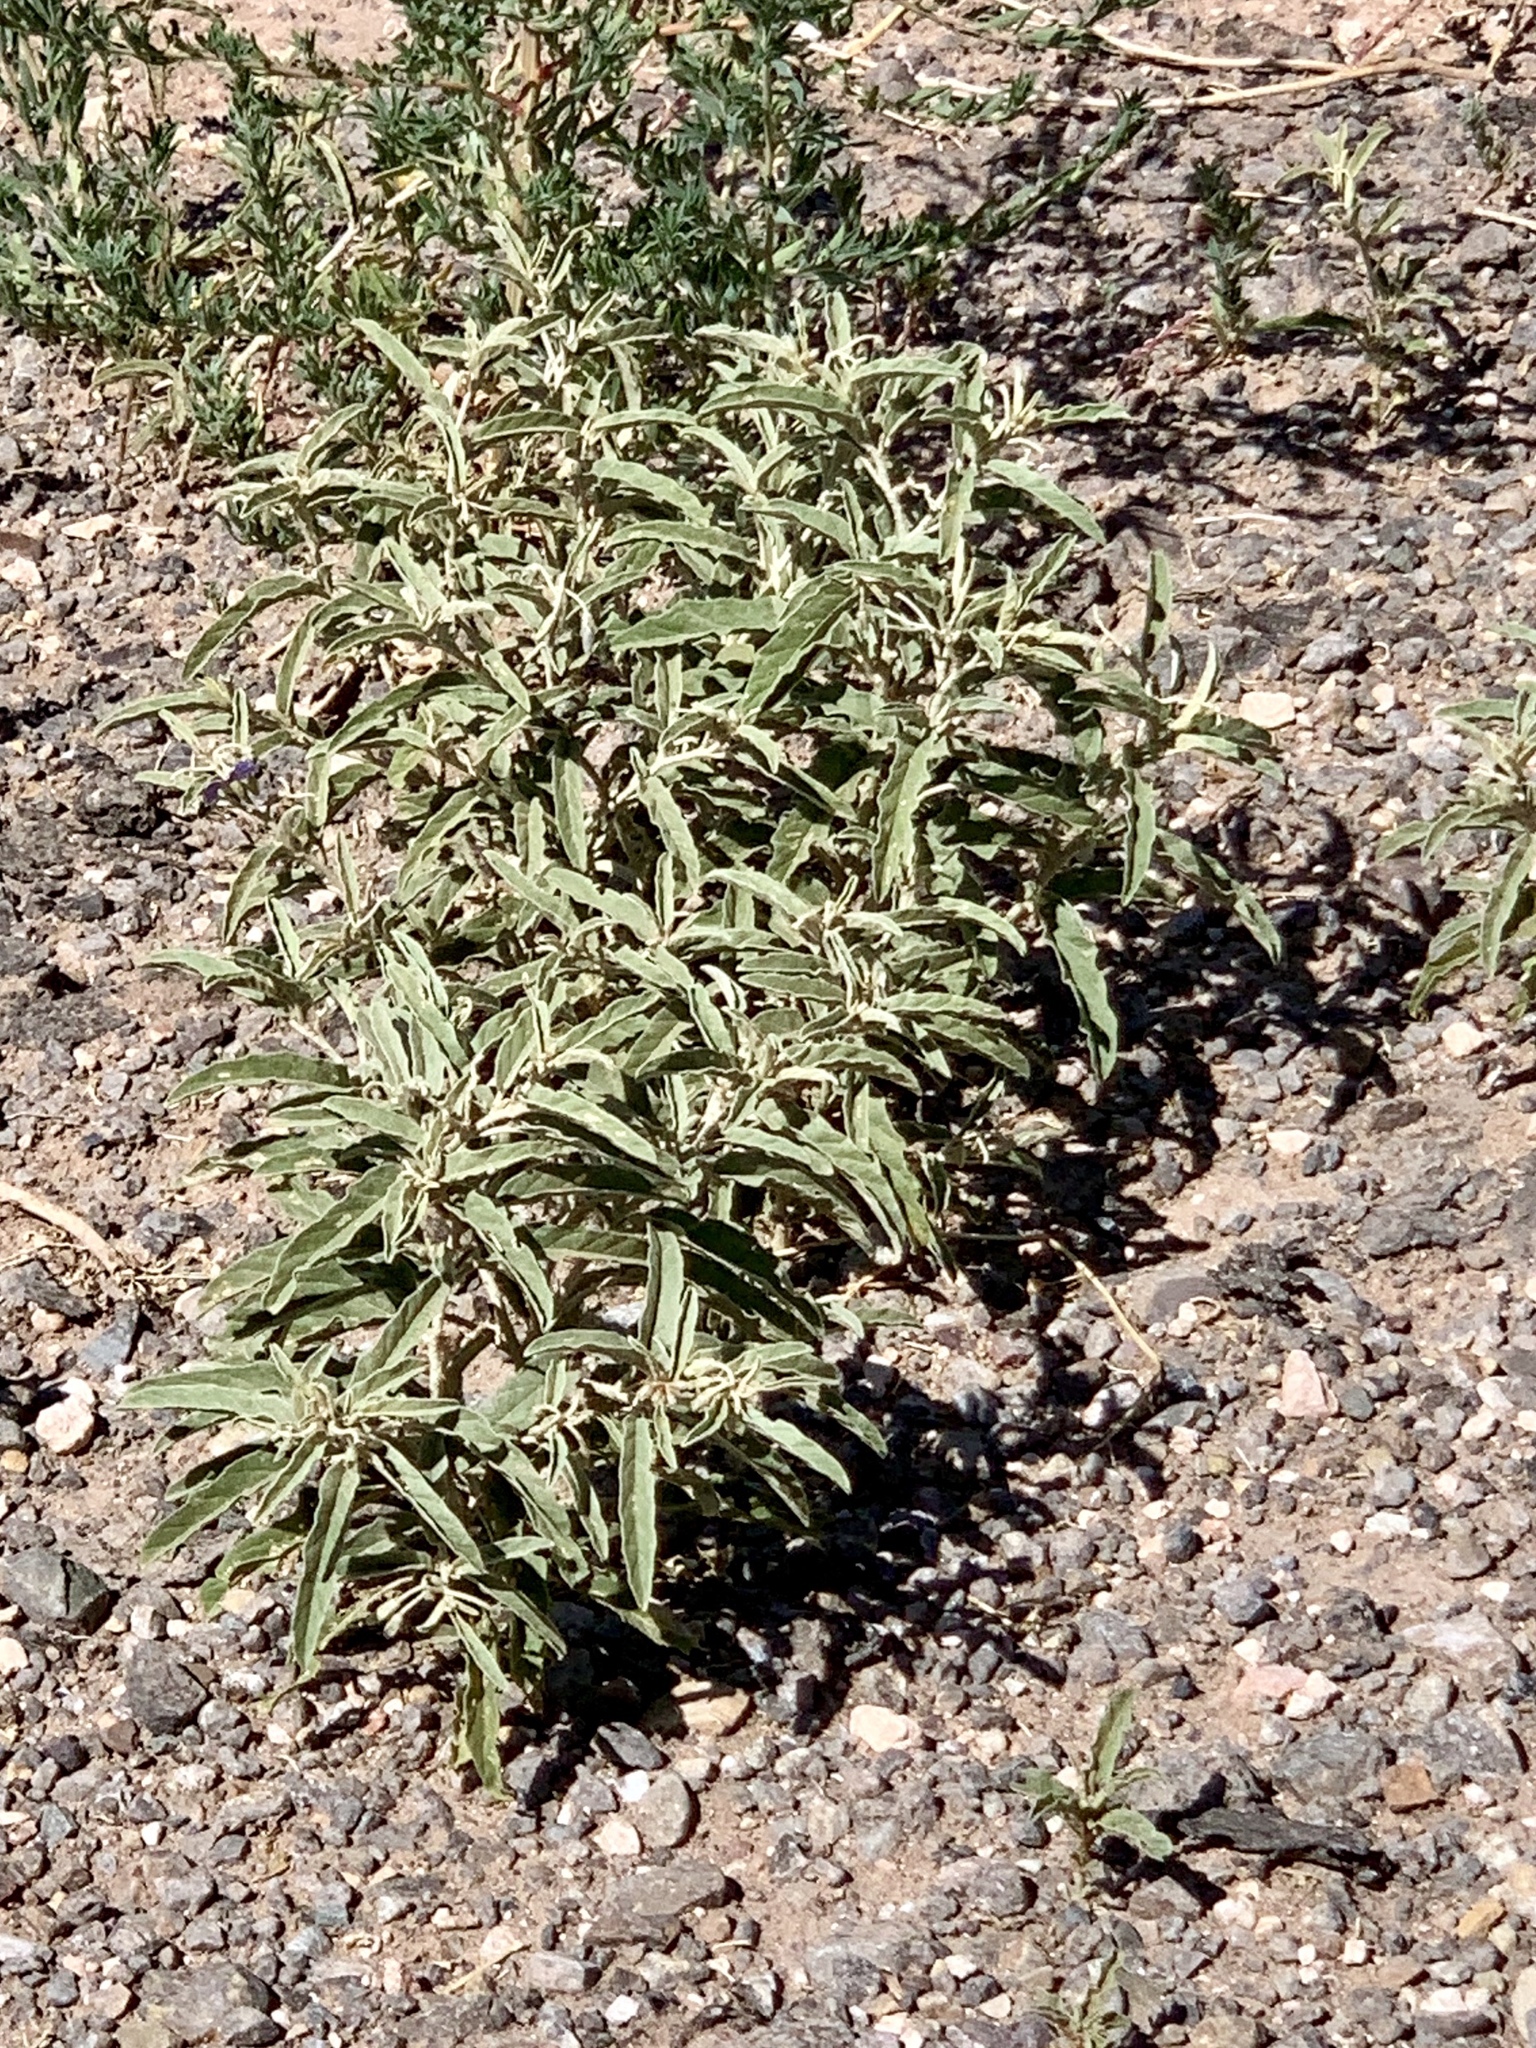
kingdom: Plantae
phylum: Tracheophyta
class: Magnoliopsida
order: Solanales
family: Solanaceae
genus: Solanum
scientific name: Solanum elaeagnifolium
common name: Silverleaf nightshade
